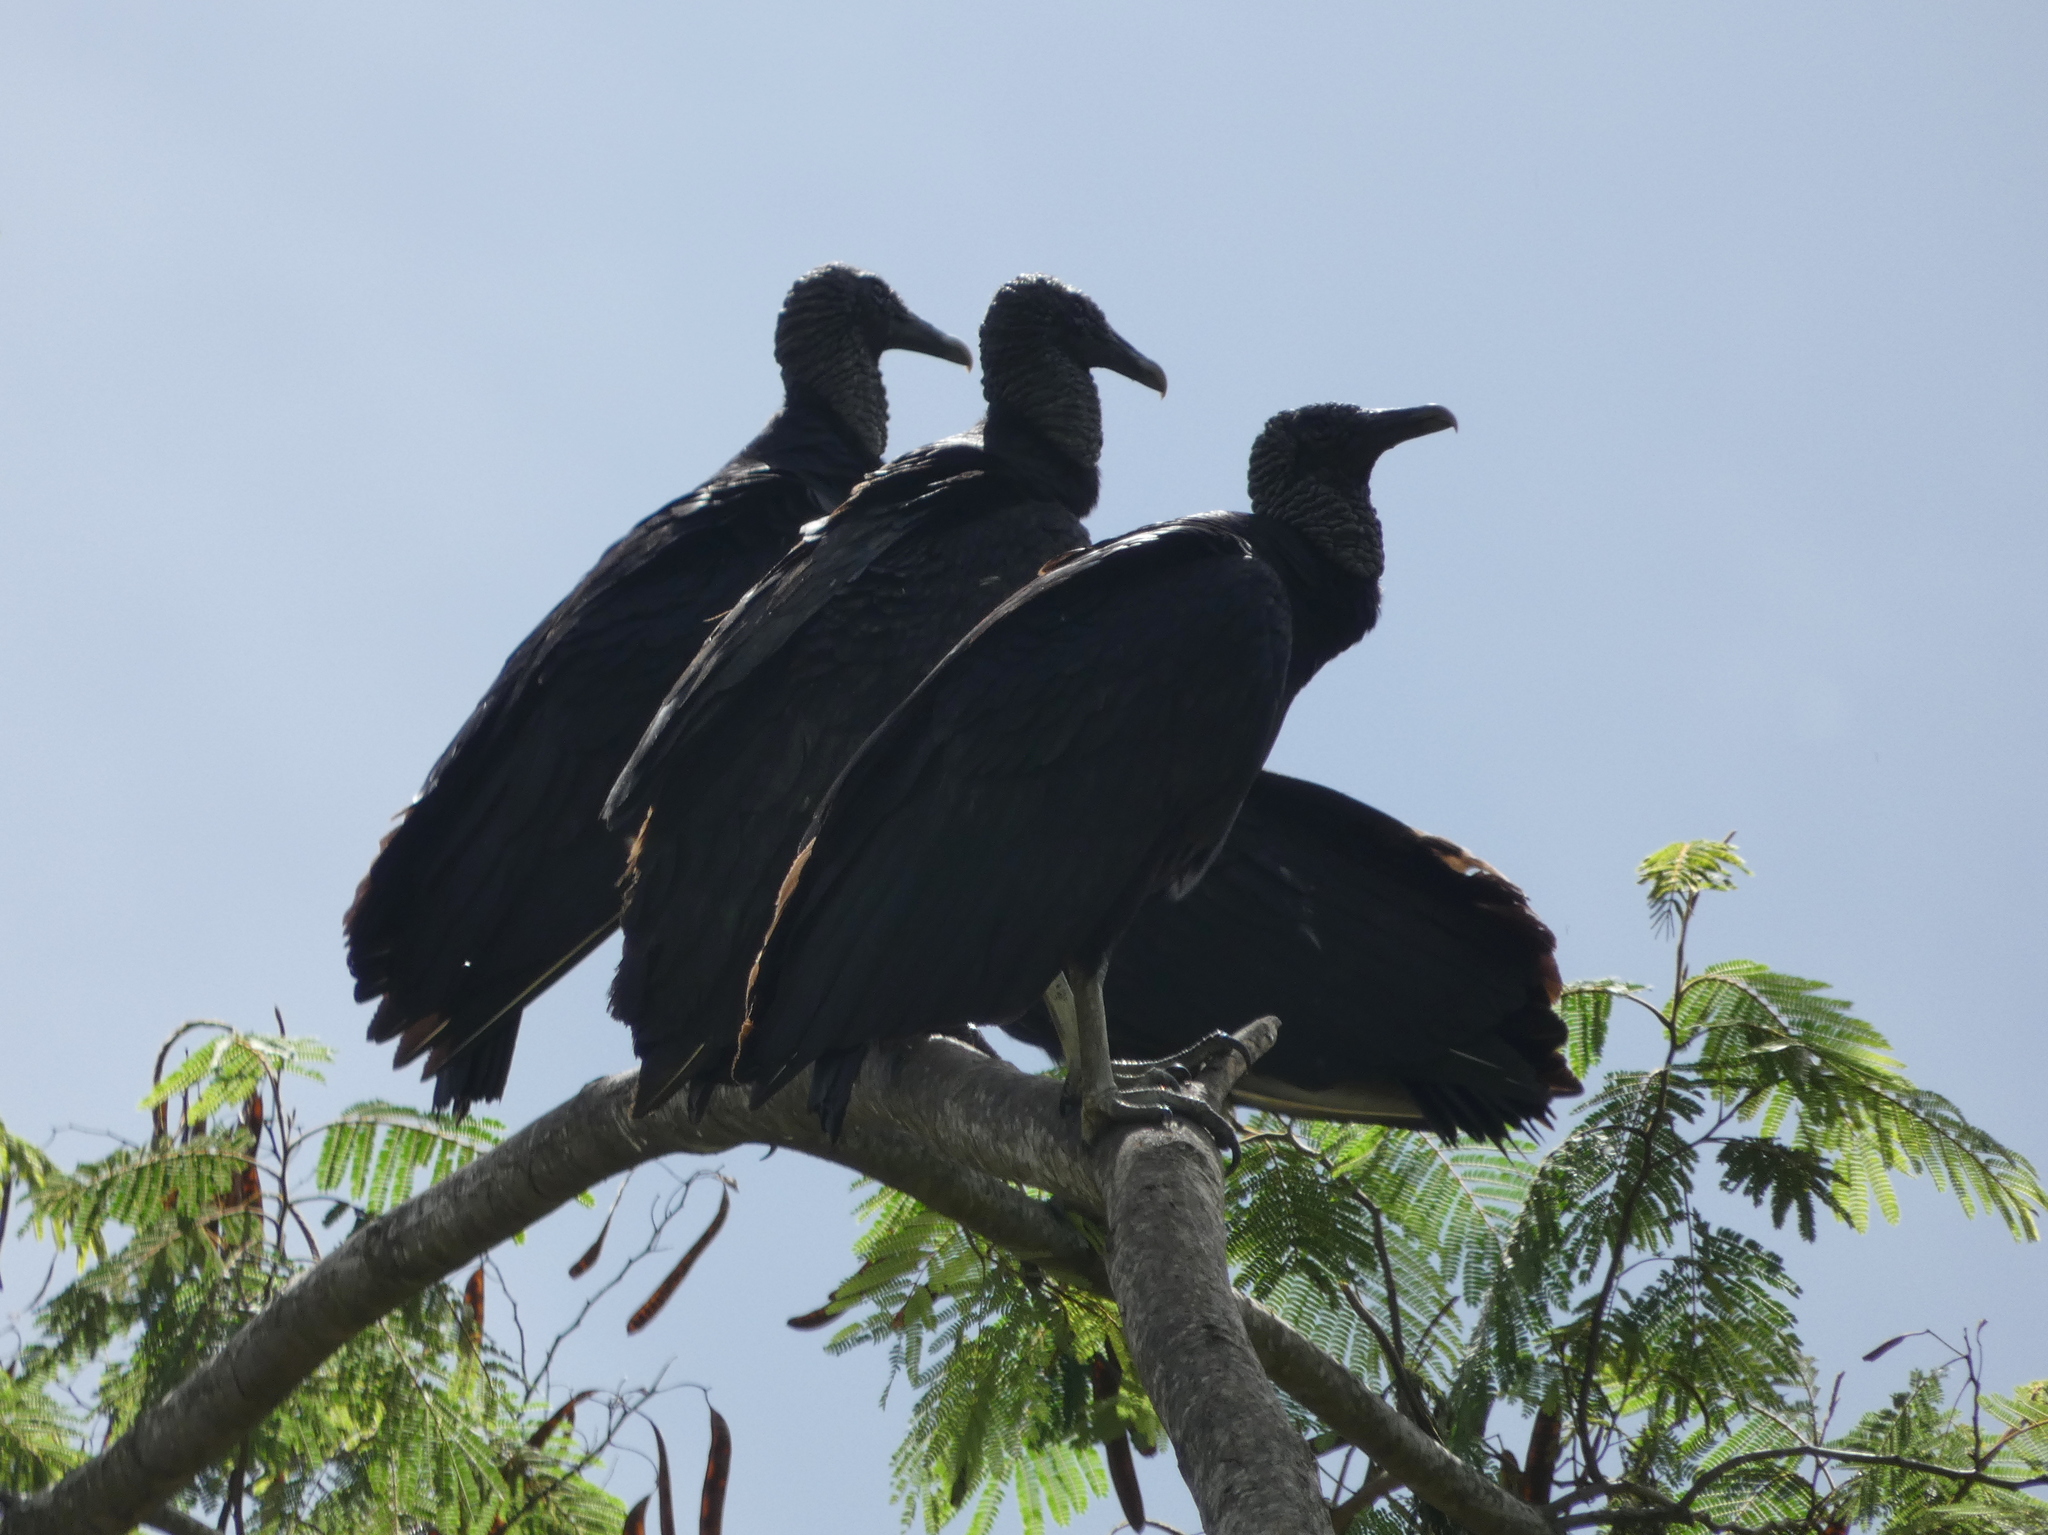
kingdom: Animalia
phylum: Chordata
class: Aves
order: Accipitriformes
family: Cathartidae
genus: Coragyps
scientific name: Coragyps atratus
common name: Black vulture
